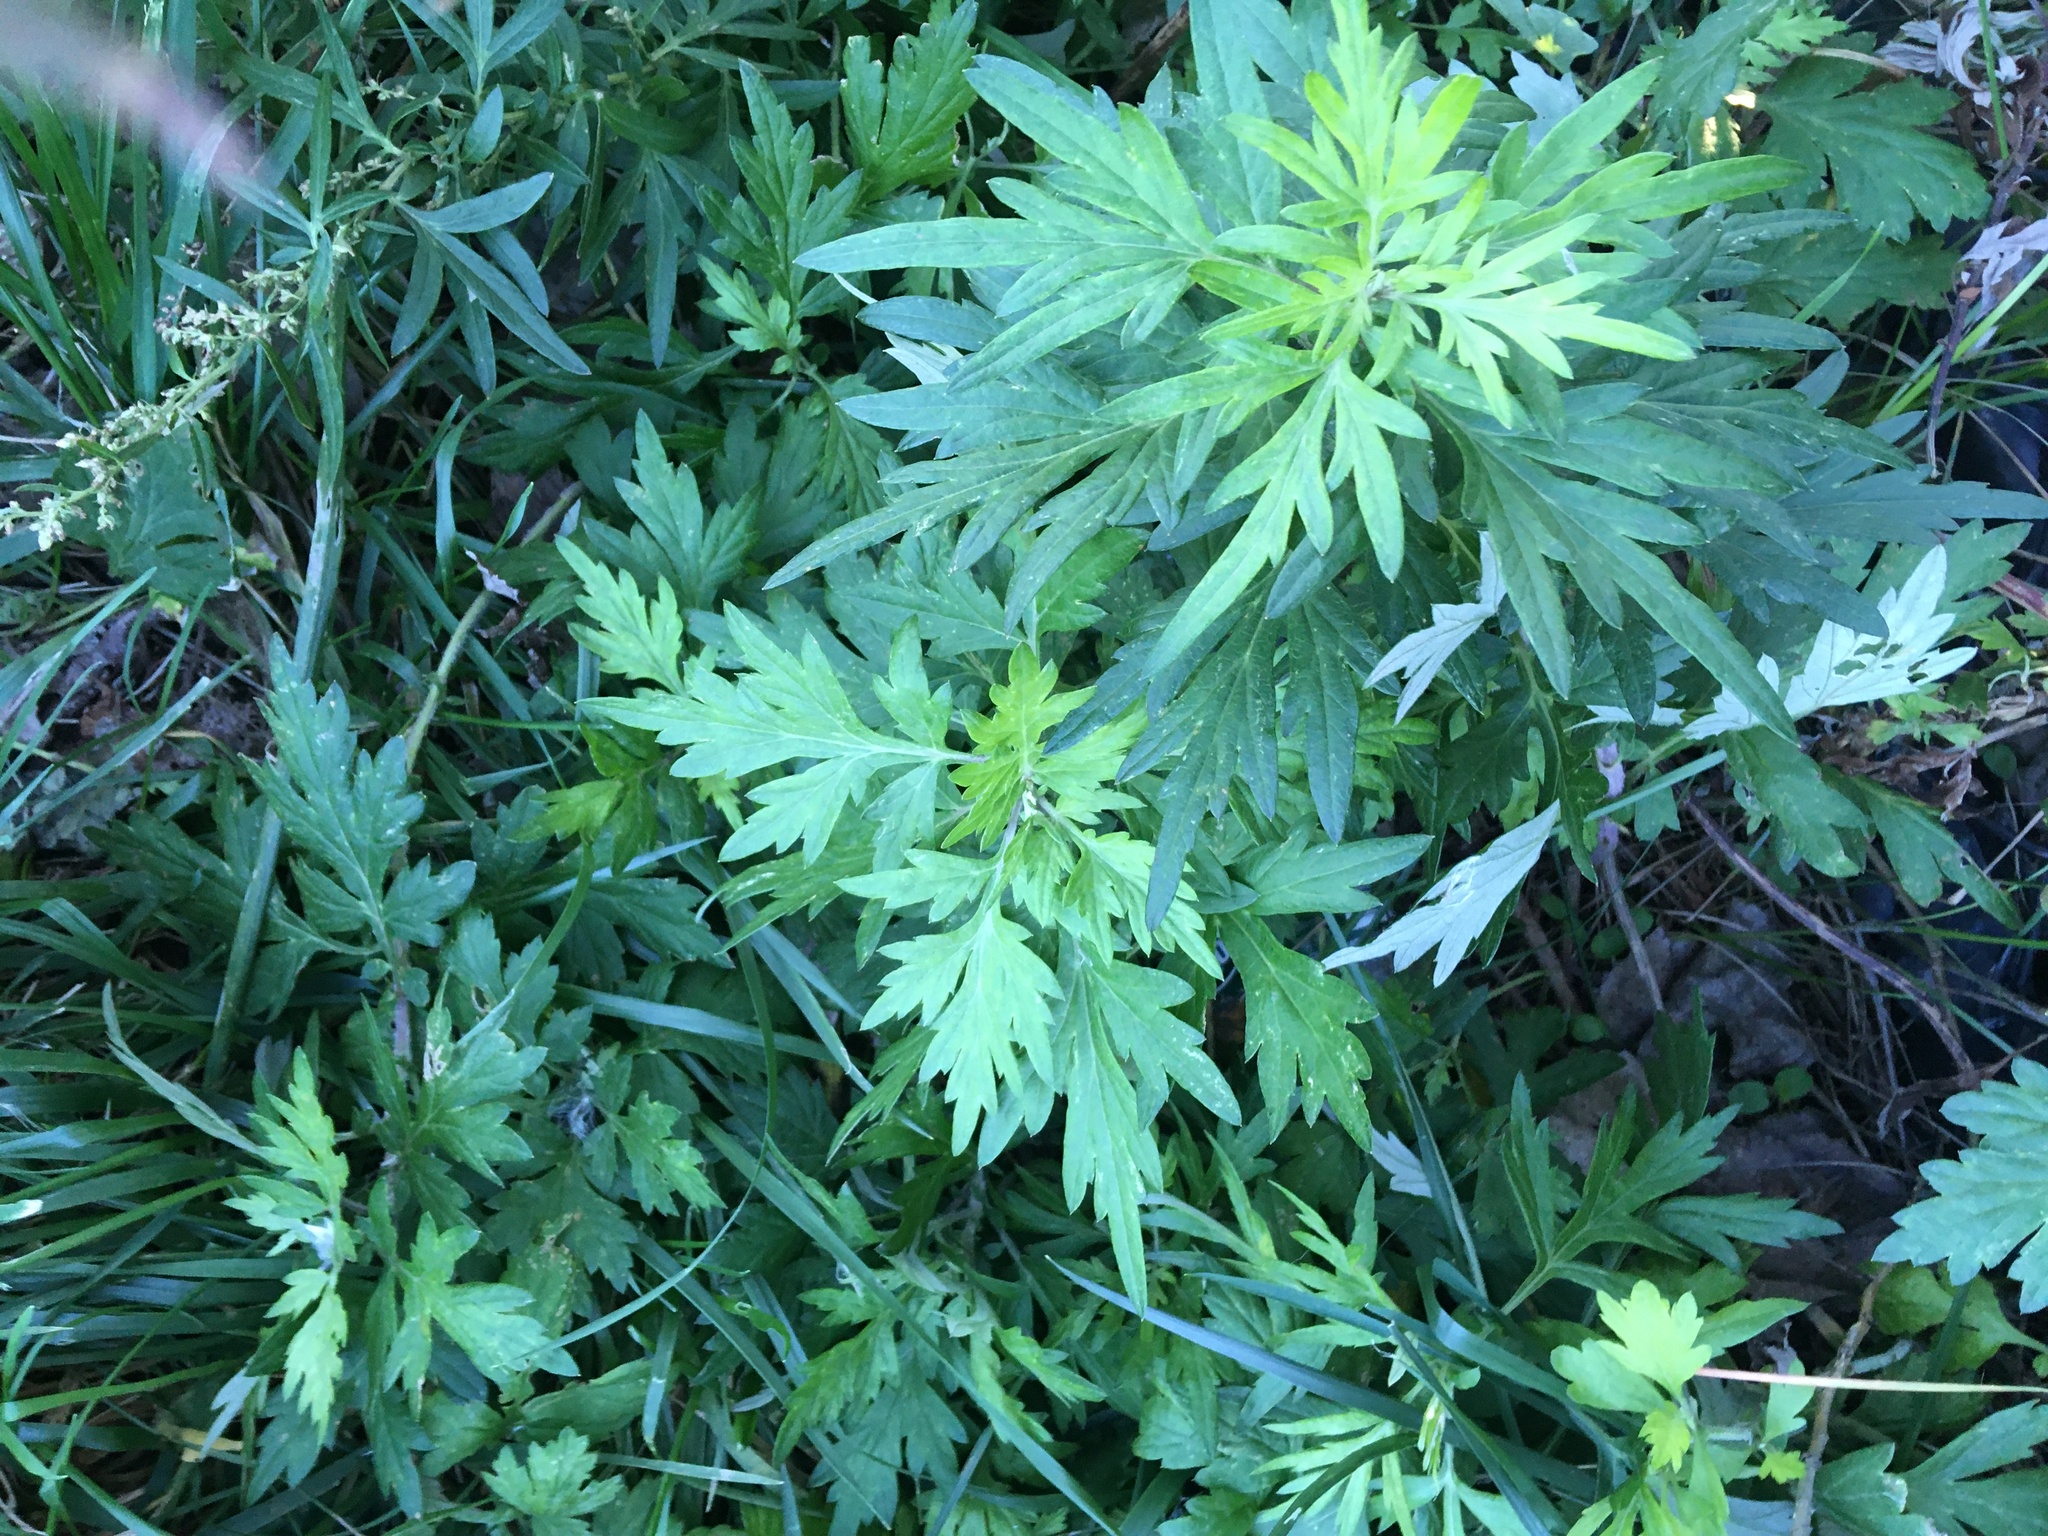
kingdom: Plantae
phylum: Tracheophyta
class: Magnoliopsida
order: Asterales
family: Asteraceae
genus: Artemisia
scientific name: Artemisia vulgaris
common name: Mugwort
